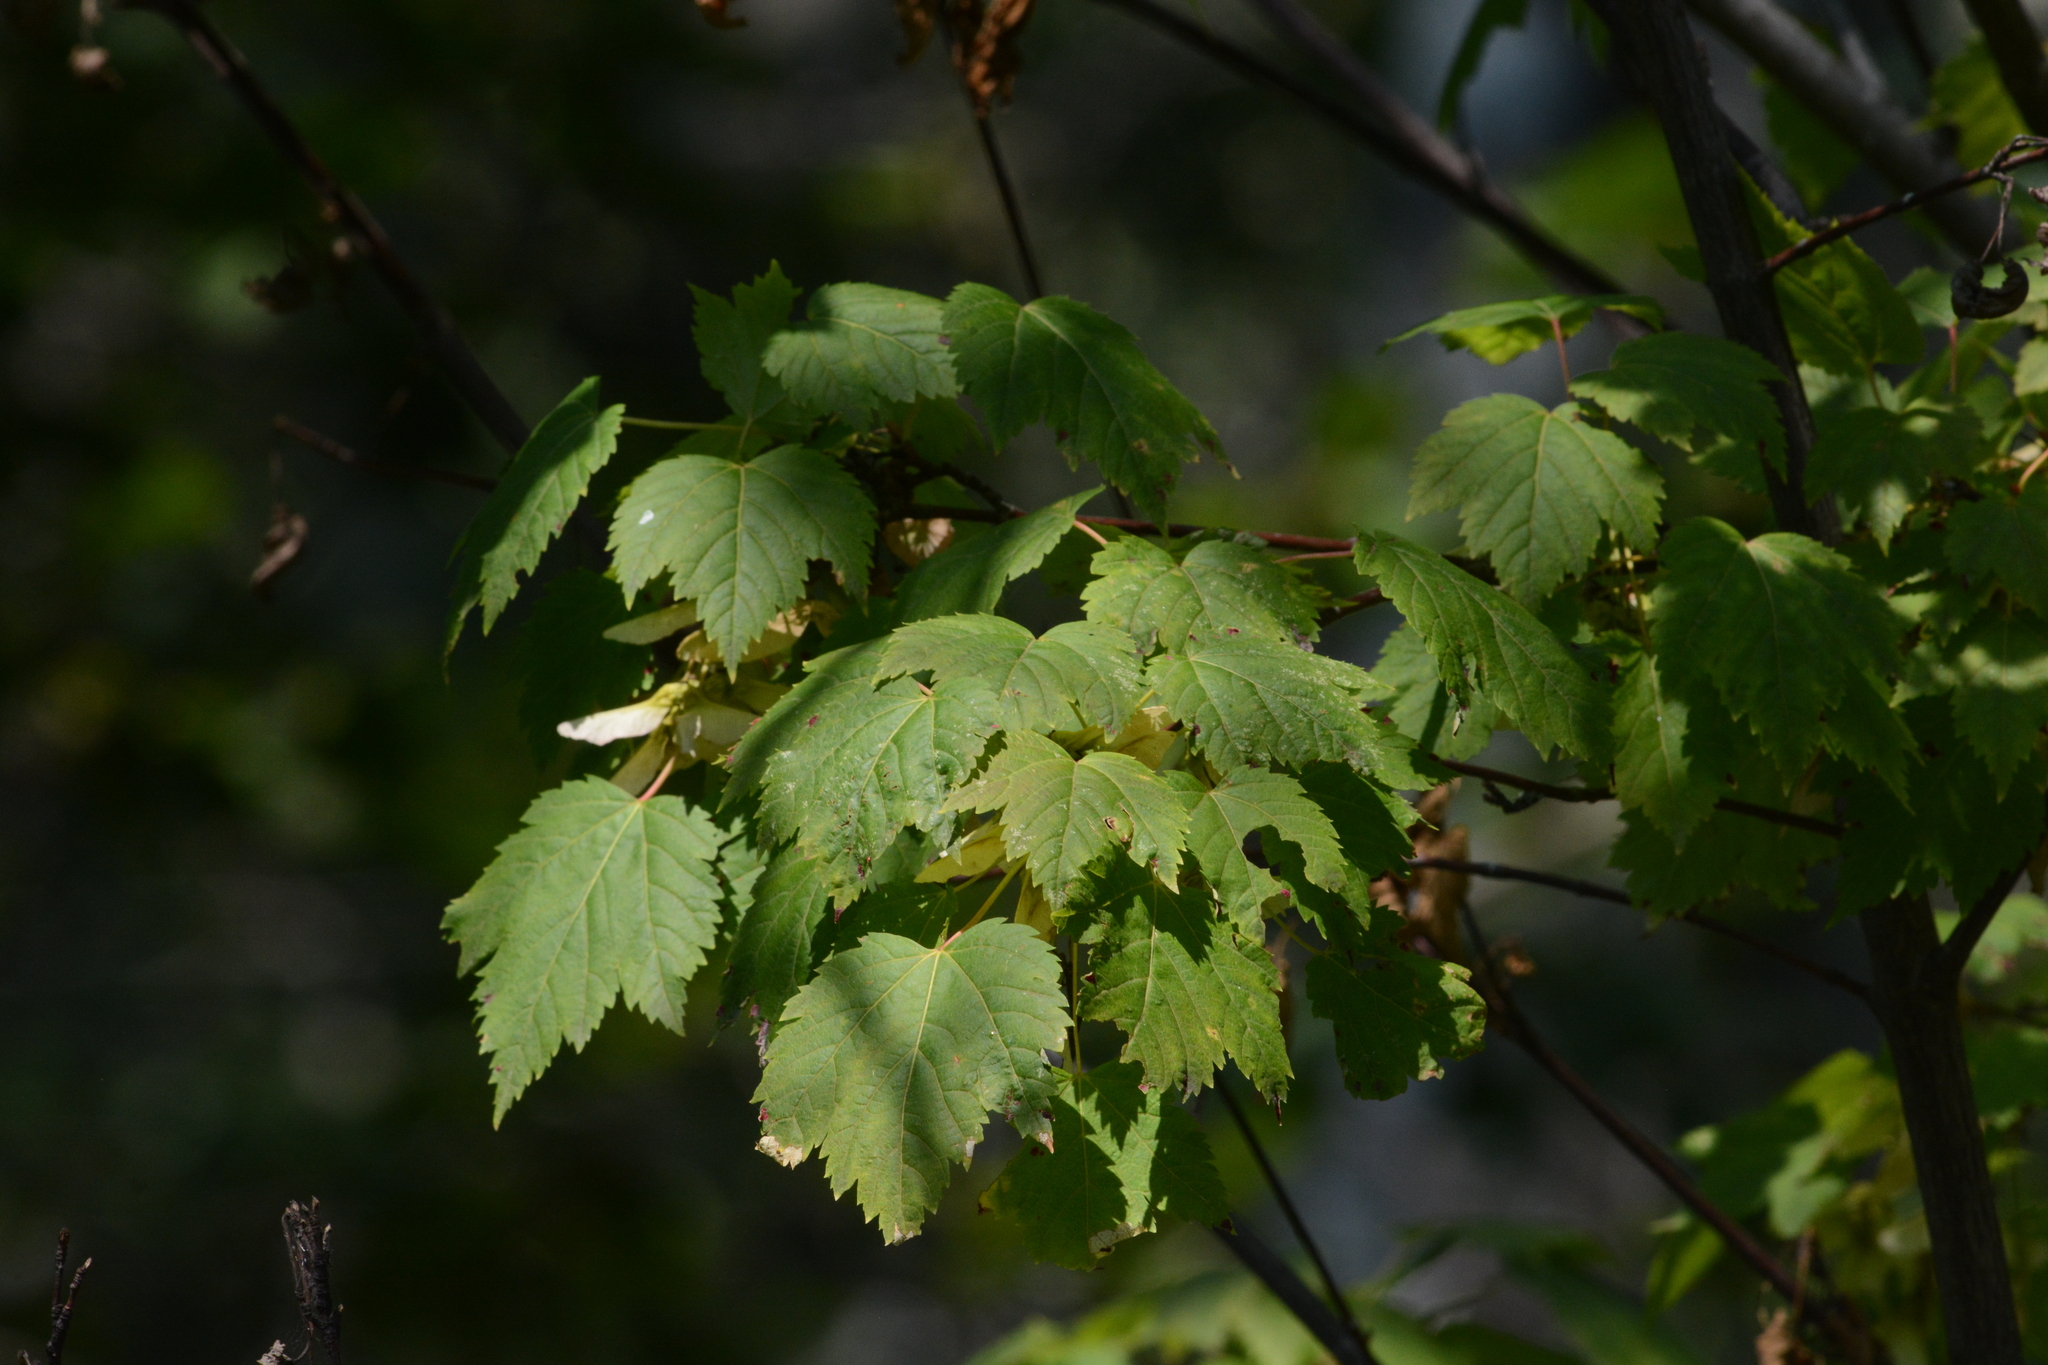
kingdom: Plantae
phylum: Tracheophyta
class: Magnoliopsida
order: Sapindales
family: Sapindaceae
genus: Acer
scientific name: Acer glabrum
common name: Rocky mountain maple
